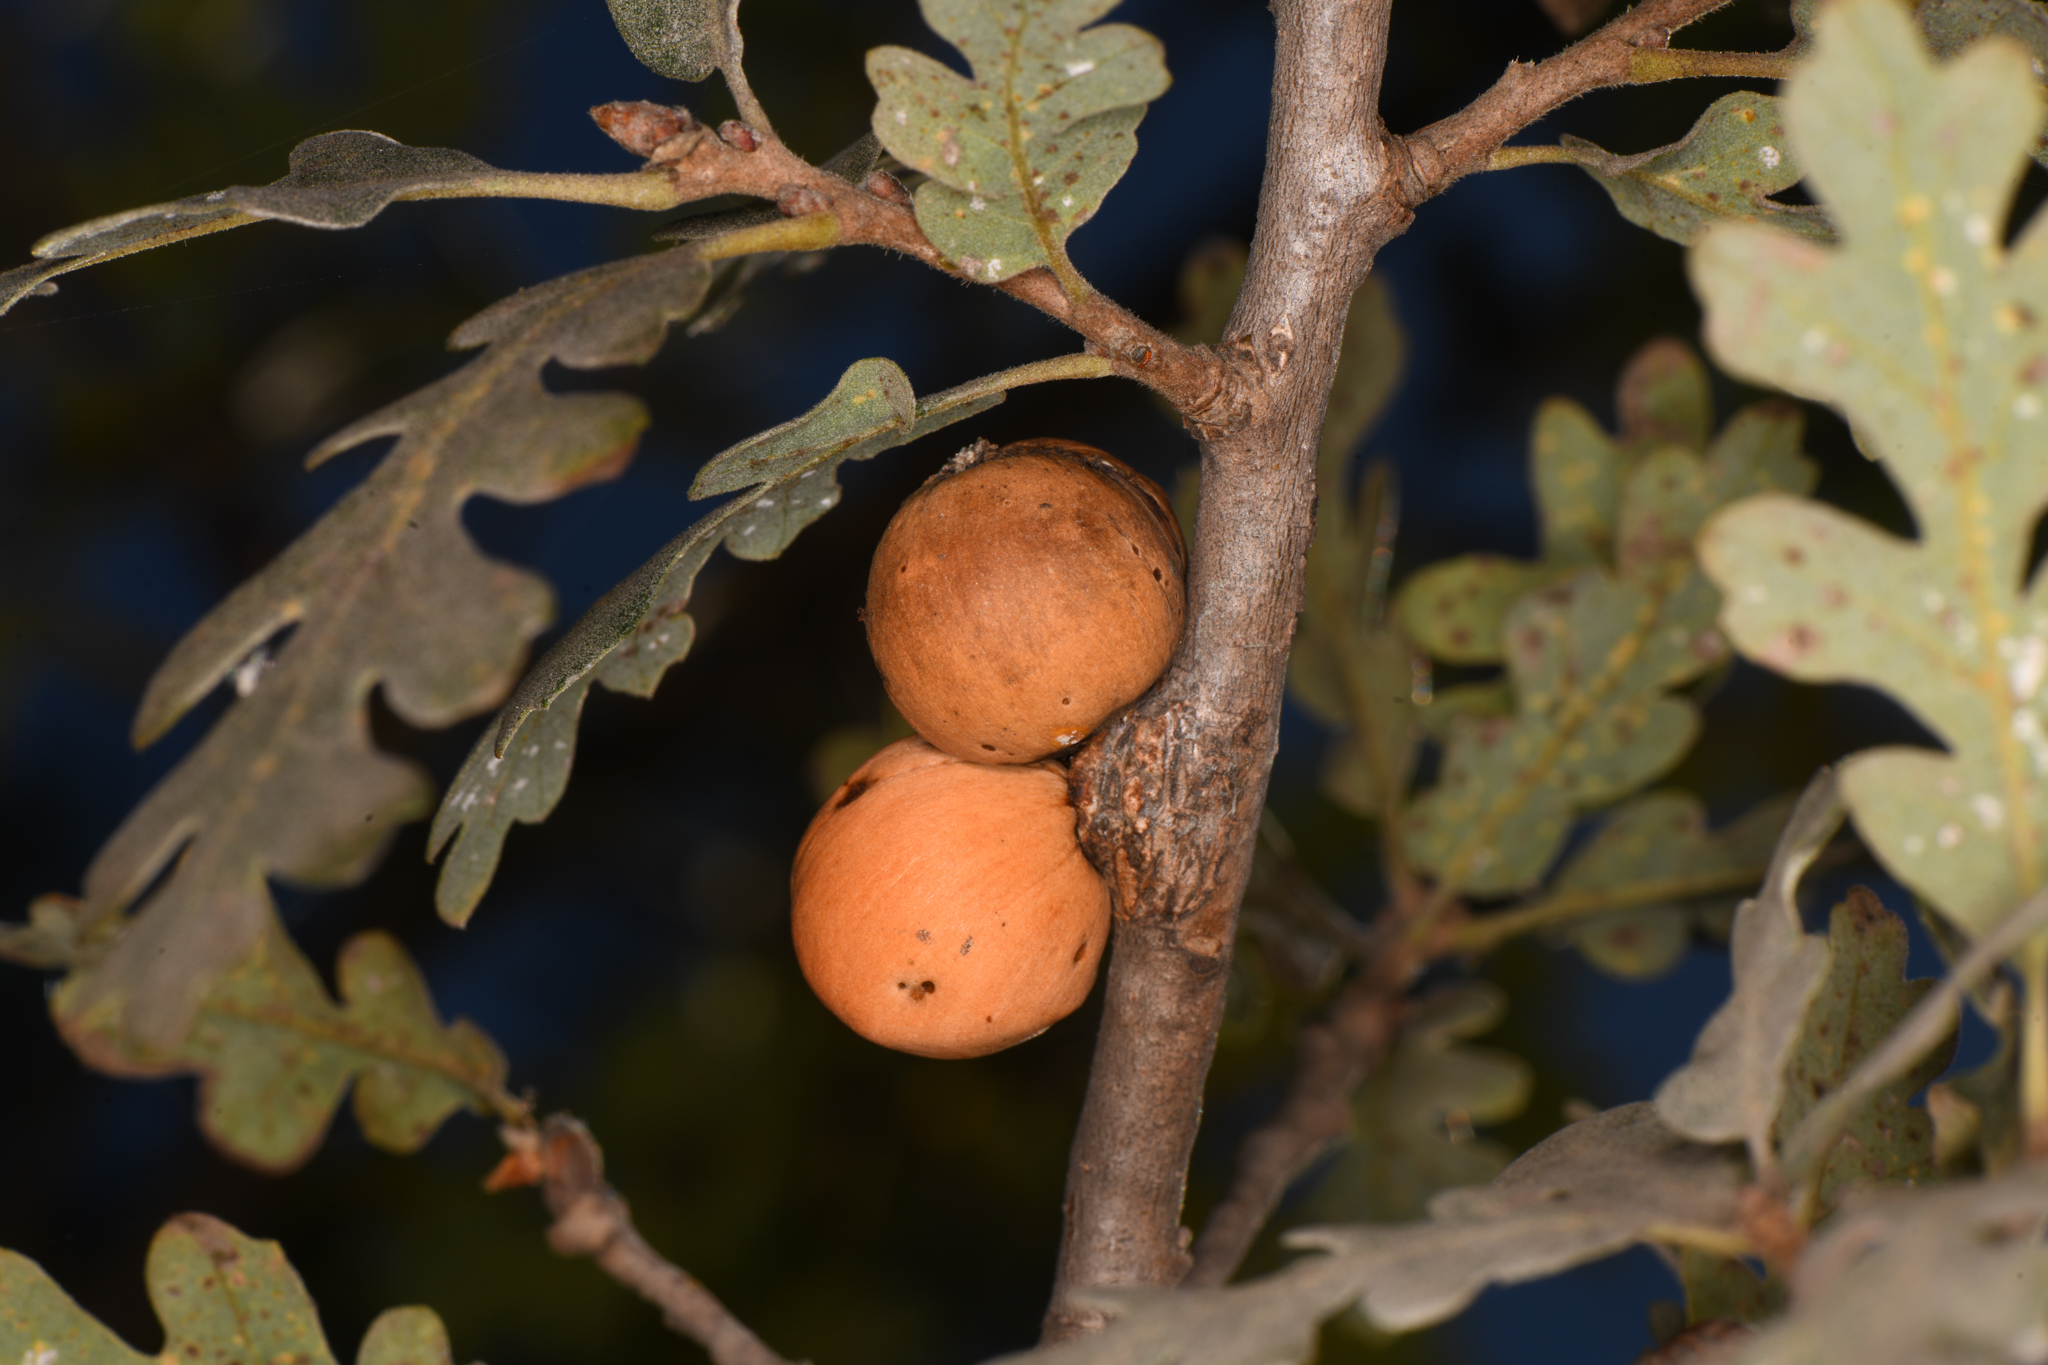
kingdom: Animalia
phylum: Arthropoda
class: Insecta
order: Hymenoptera
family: Cynipidae
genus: Andricus
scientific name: Andricus quercuscalifornicus
